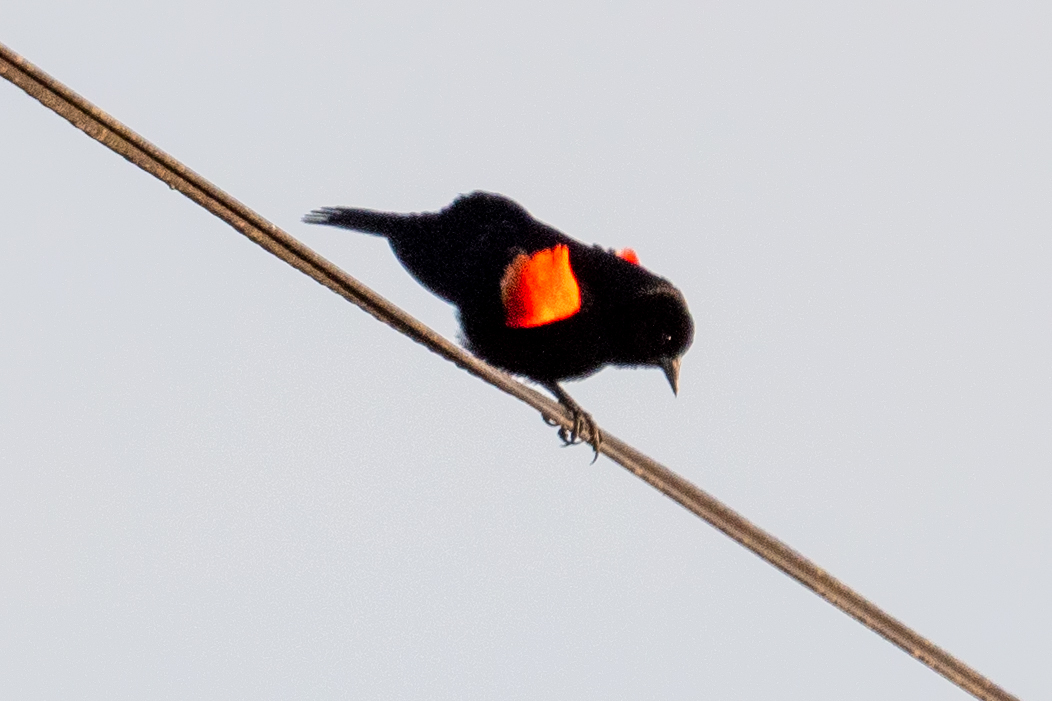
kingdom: Animalia
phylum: Chordata
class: Aves
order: Passeriformes
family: Icteridae
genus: Agelaius
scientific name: Agelaius phoeniceus
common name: Red-winged blackbird
